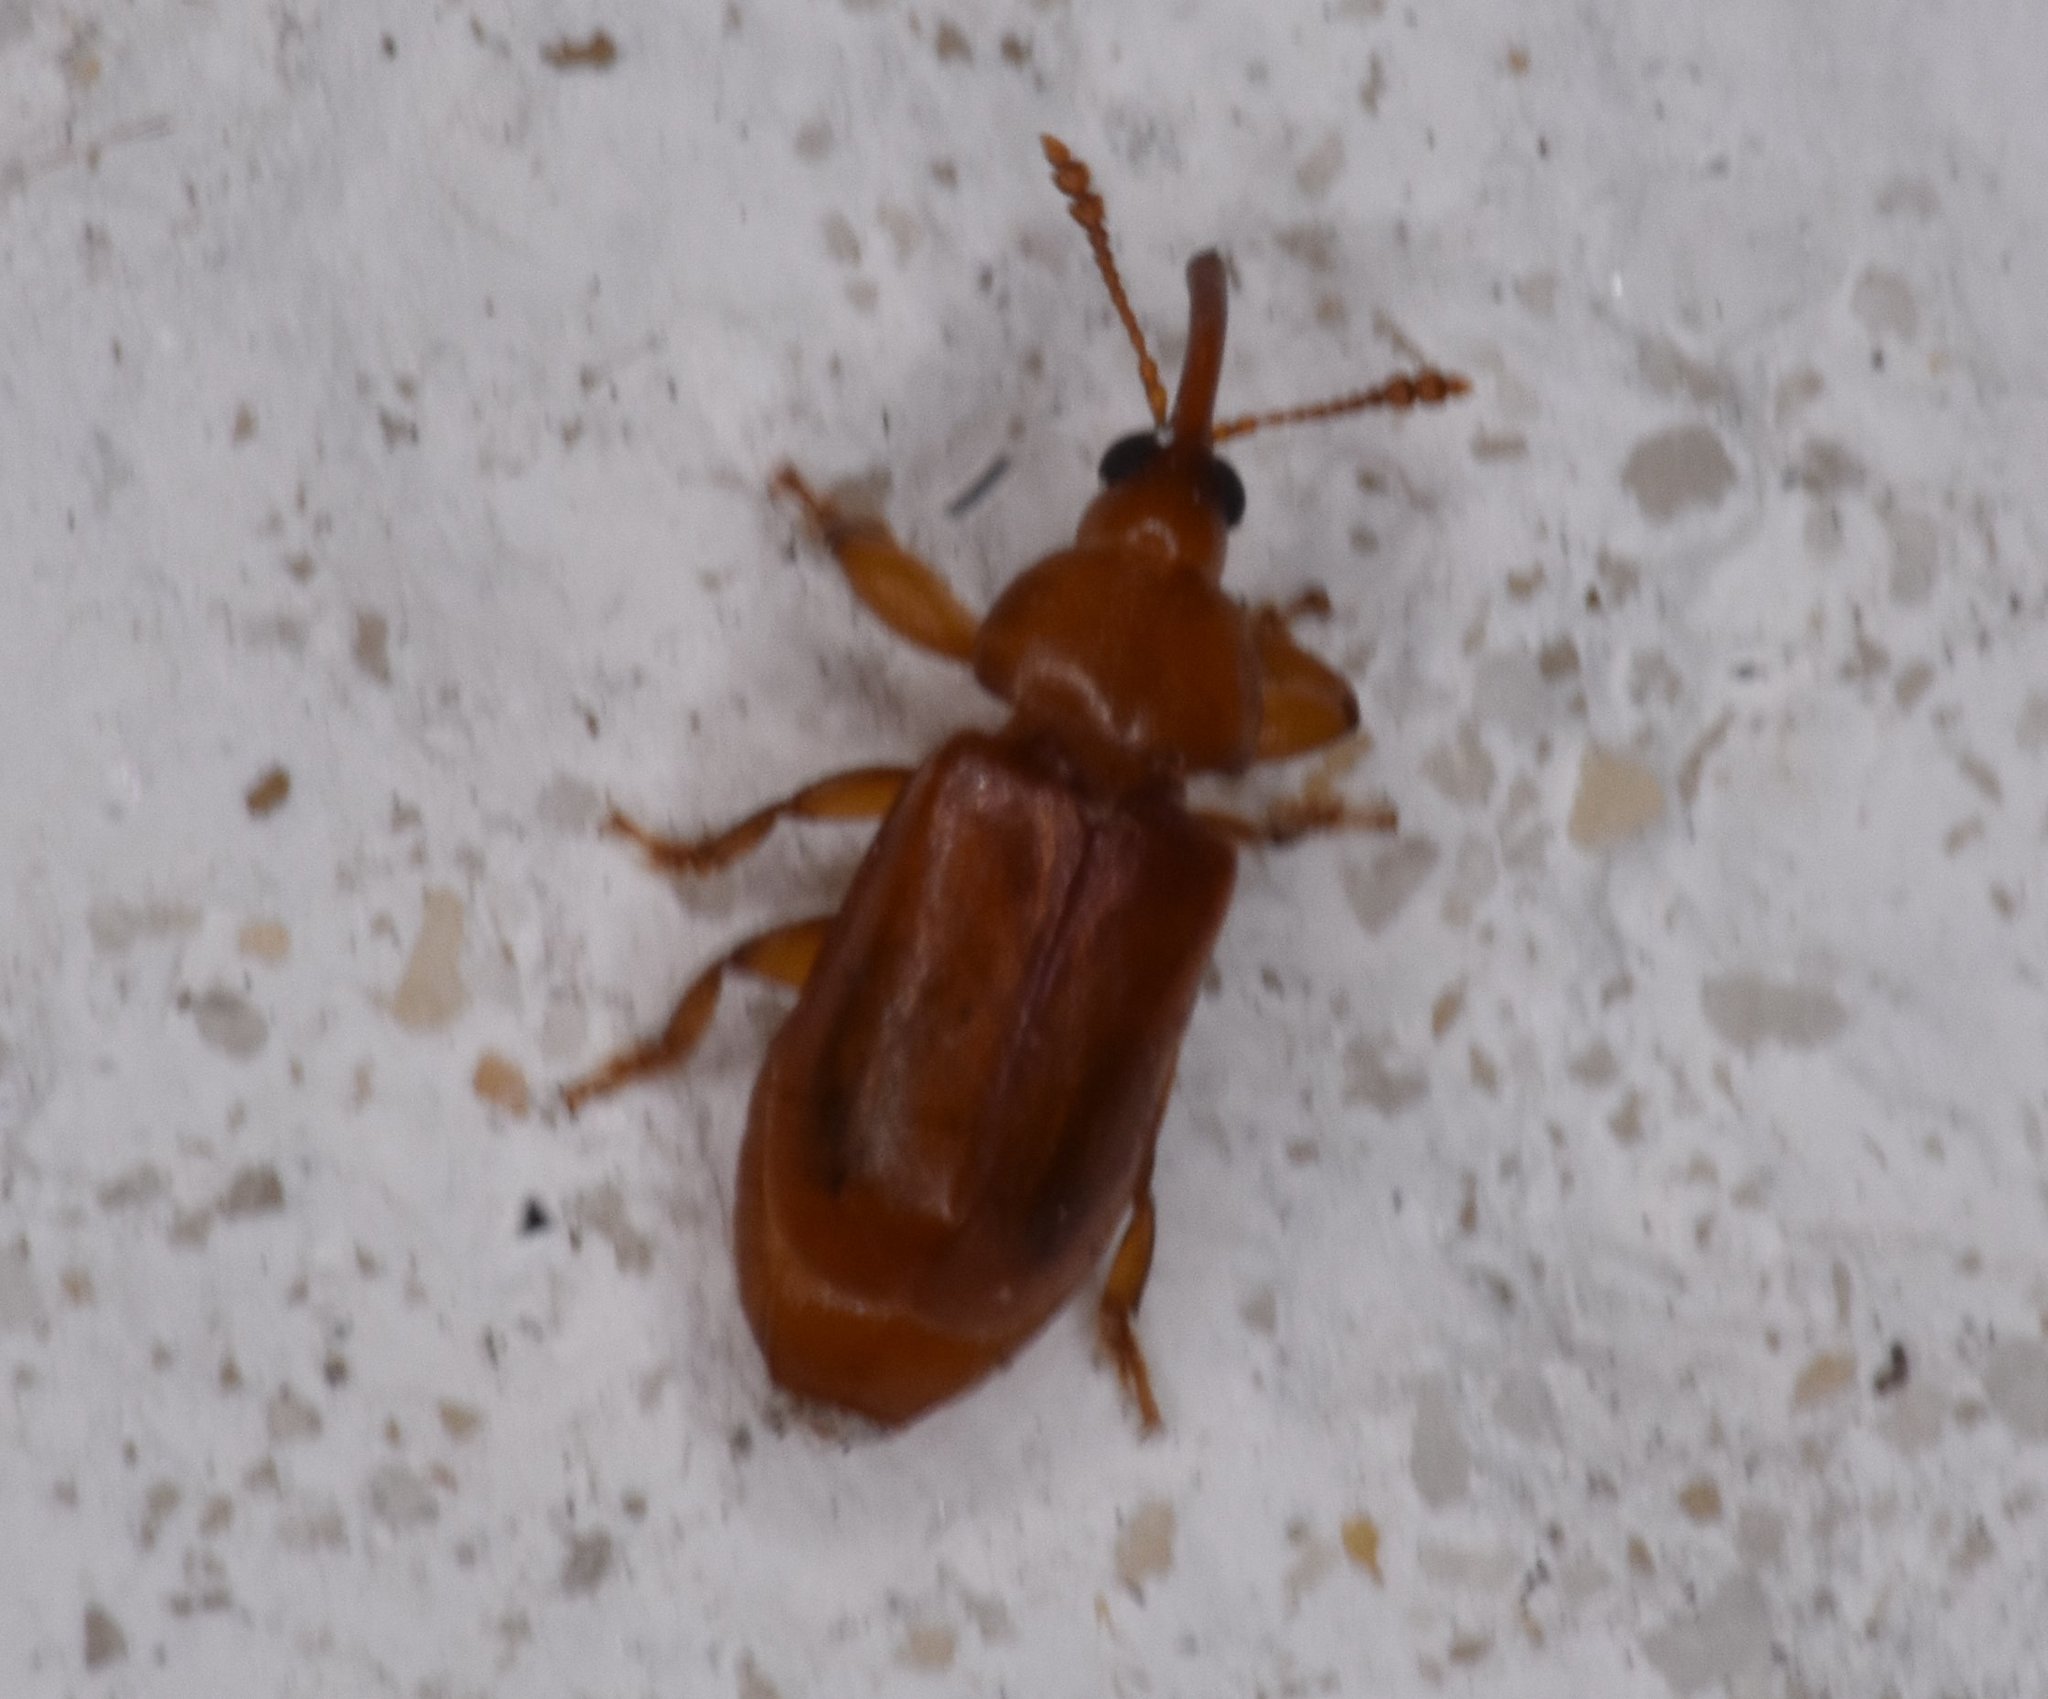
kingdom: Animalia
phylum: Arthropoda
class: Insecta
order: Coleoptera
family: Belidae
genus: Rhopalotria
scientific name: Rhopalotria furfuracea
